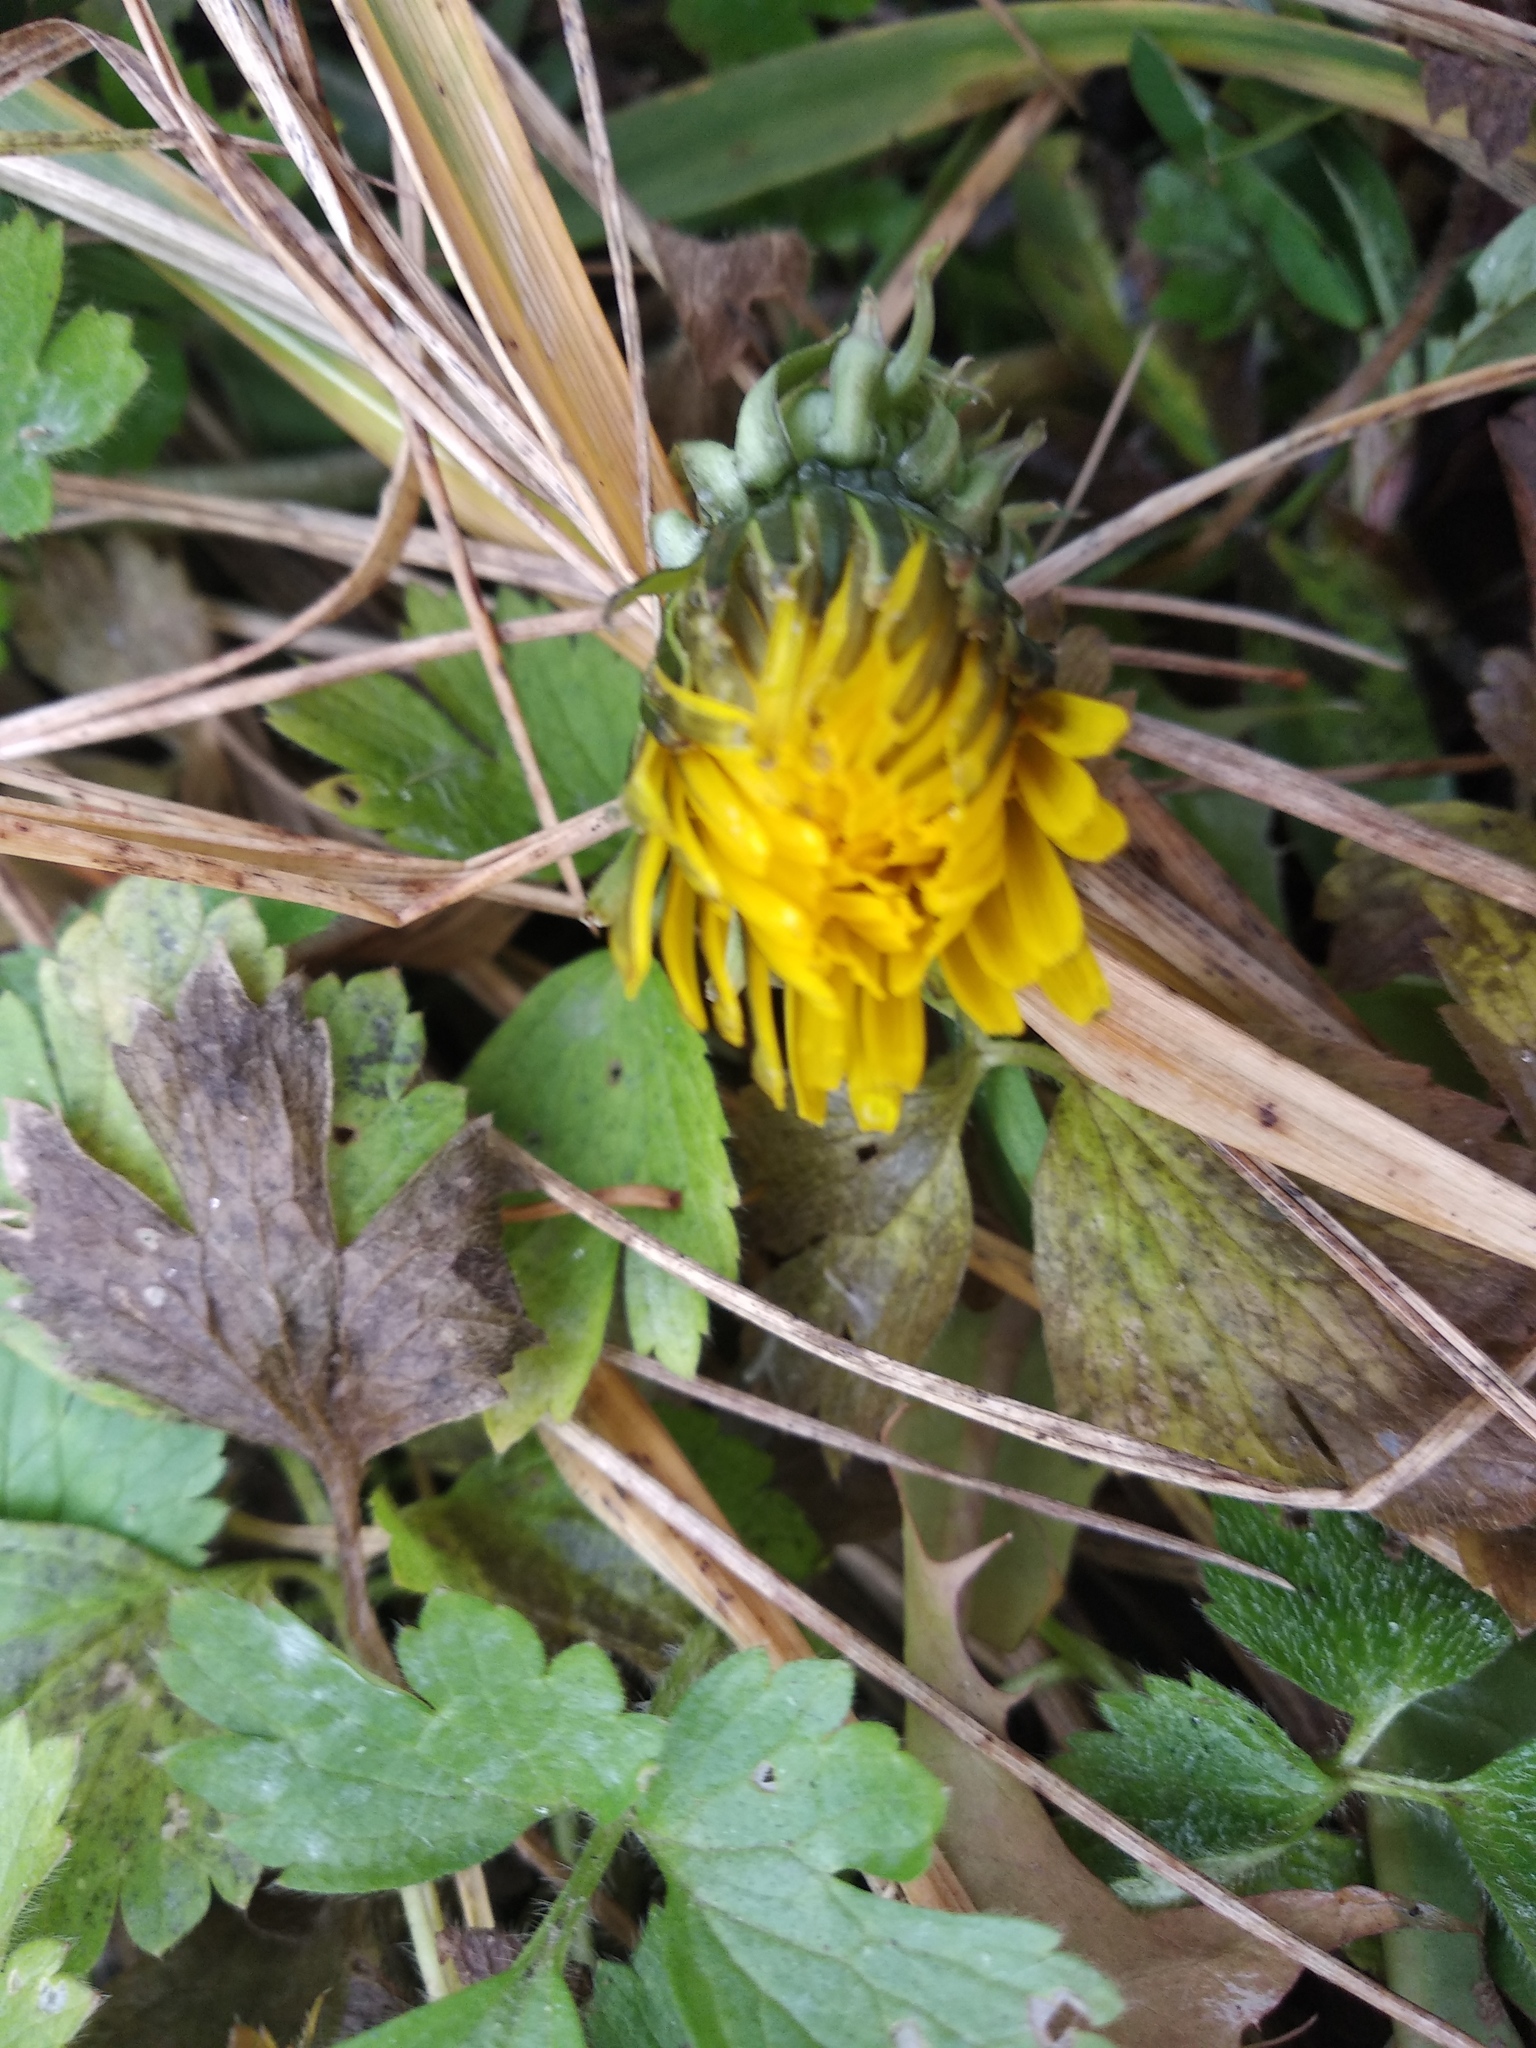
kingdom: Plantae
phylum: Tracheophyta
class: Magnoliopsida
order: Asterales
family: Asteraceae
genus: Taraxacum
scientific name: Taraxacum officinale
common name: Common dandelion
